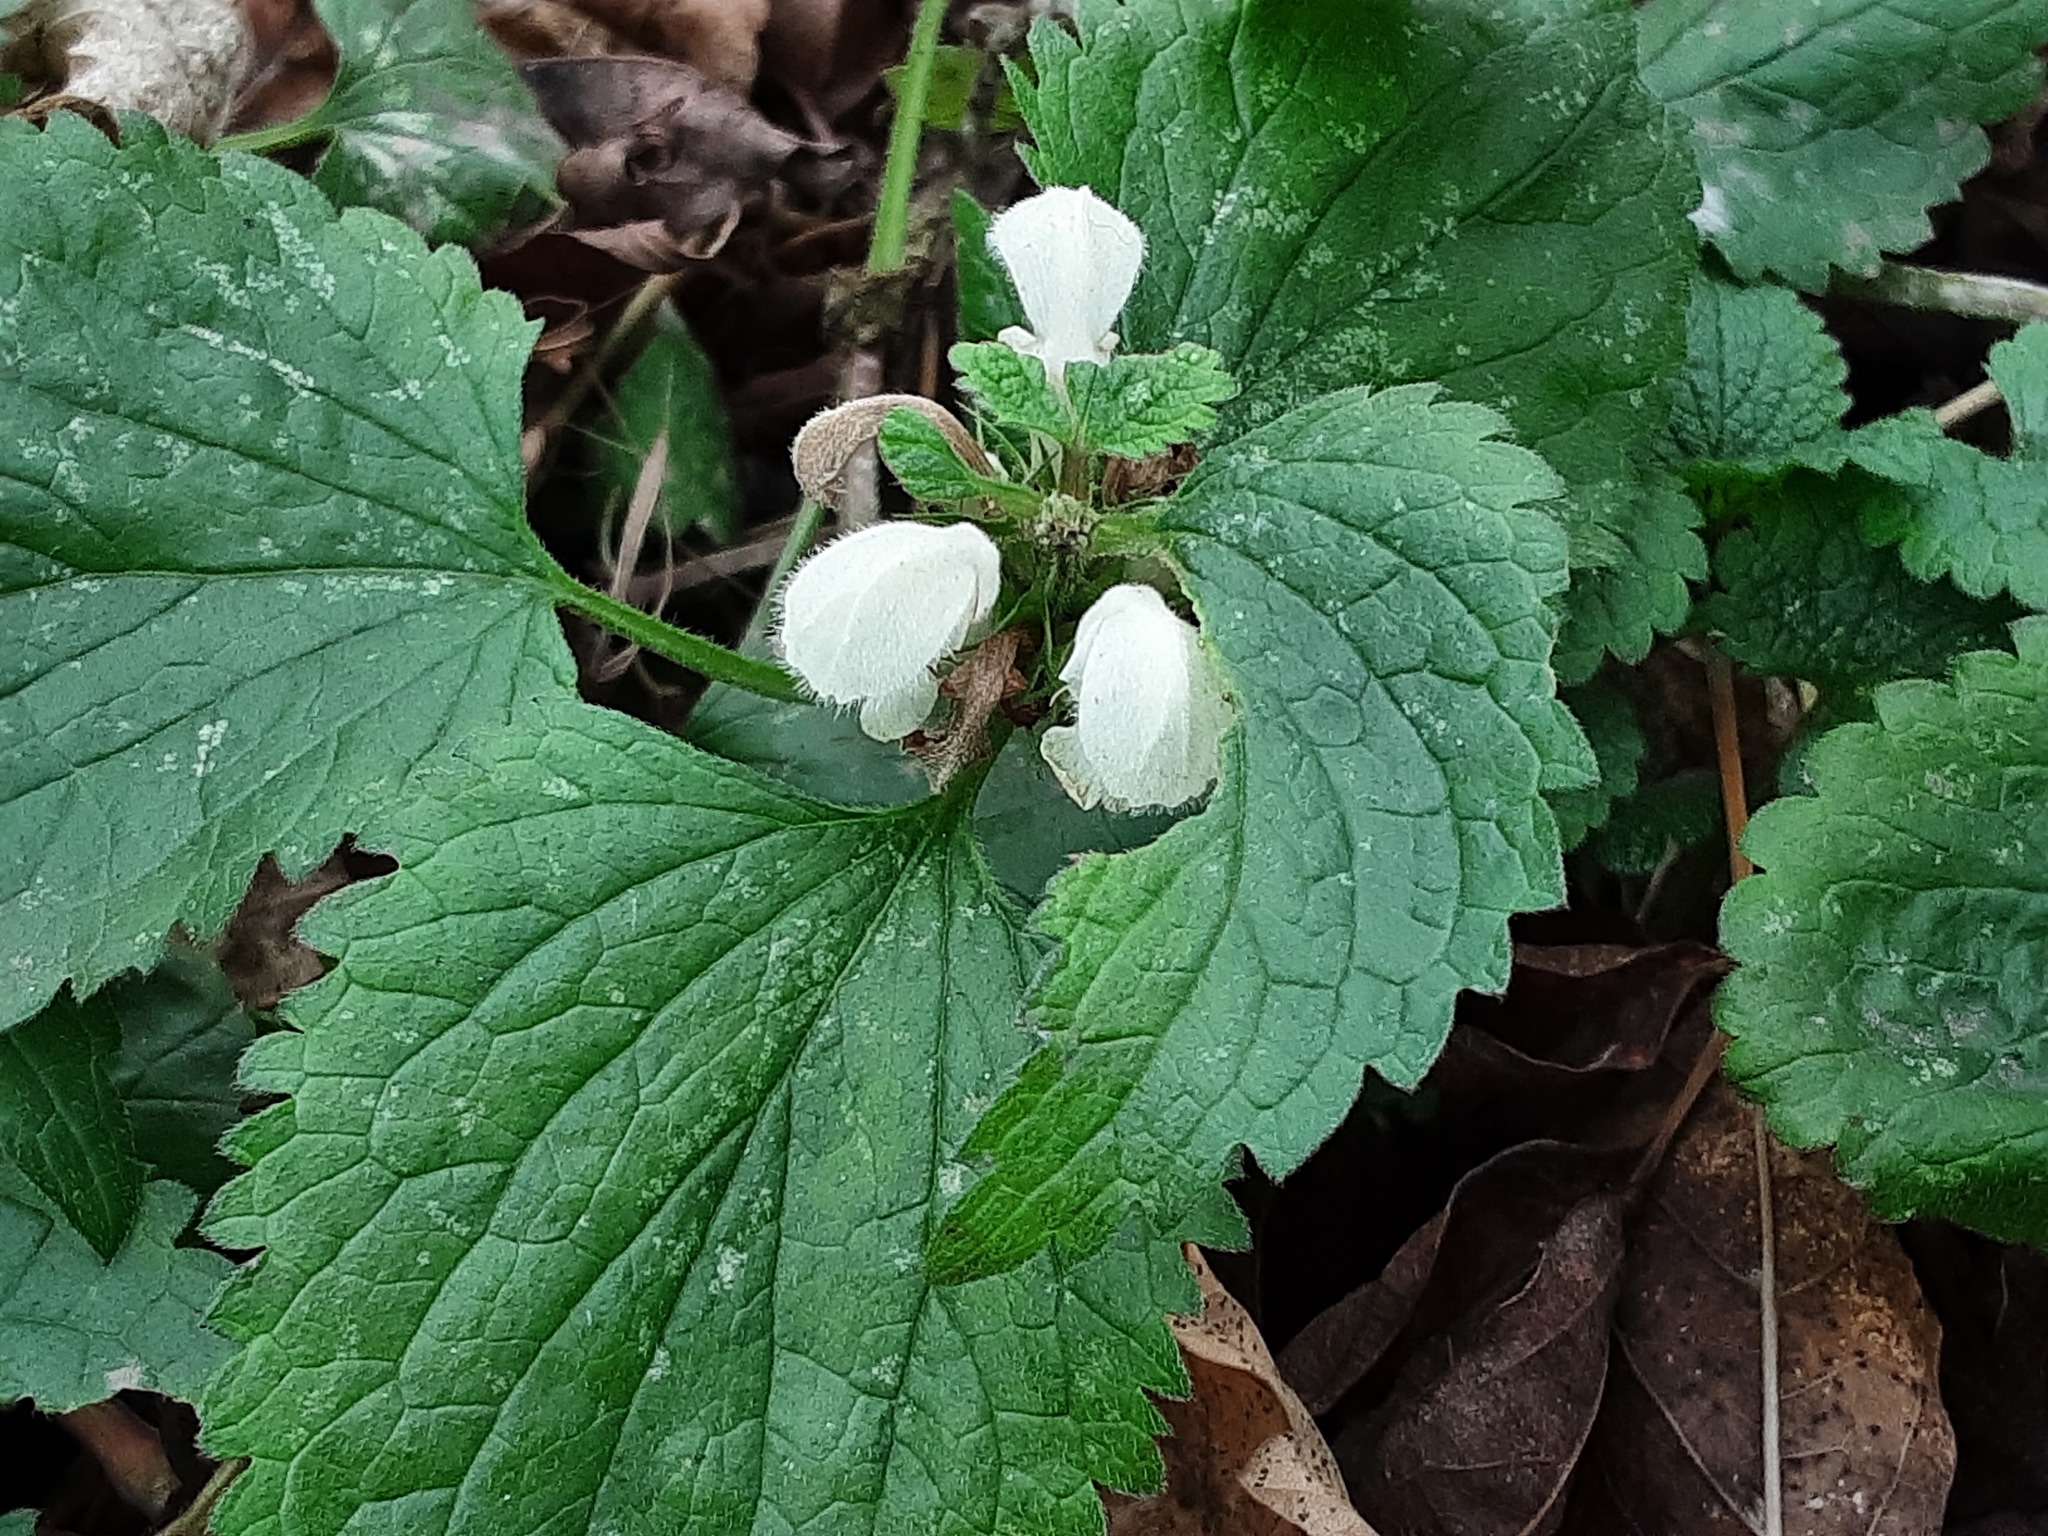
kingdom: Plantae
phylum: Tracheophyta
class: Magnoliopsida
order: Lamiales
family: Lamiaceae
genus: Lamium
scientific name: Lamium album
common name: White dead-nettle
